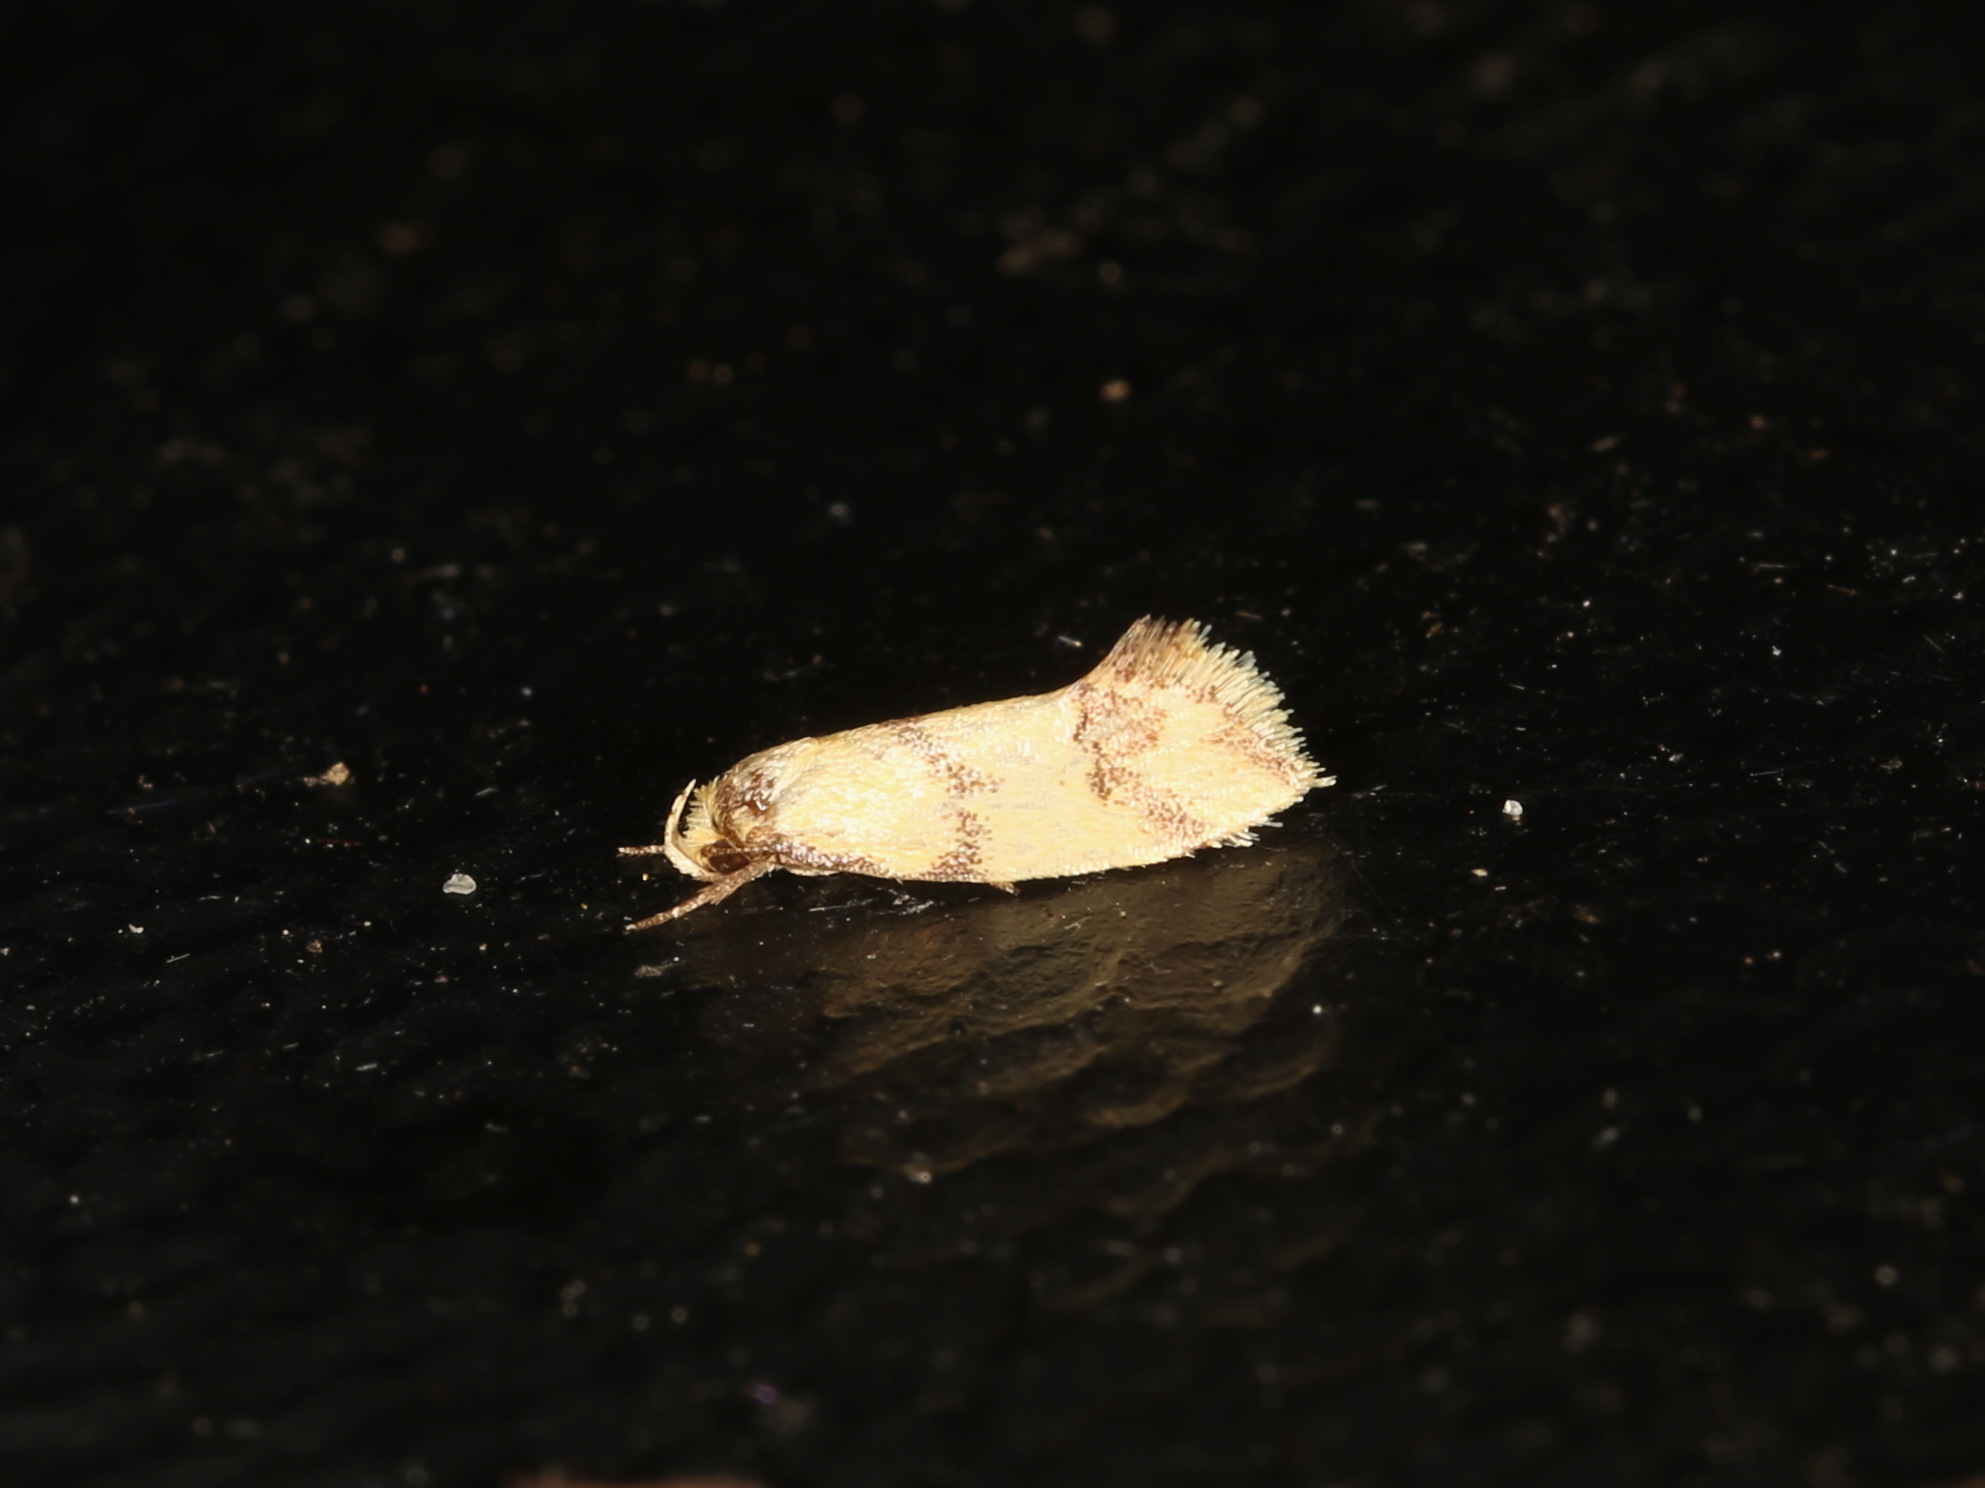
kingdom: Animalia
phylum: Arthropoda
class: Insecta
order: Lepidoptera
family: Oecophoridae
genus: Psaroxantha
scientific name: Psaroxantha basilica
